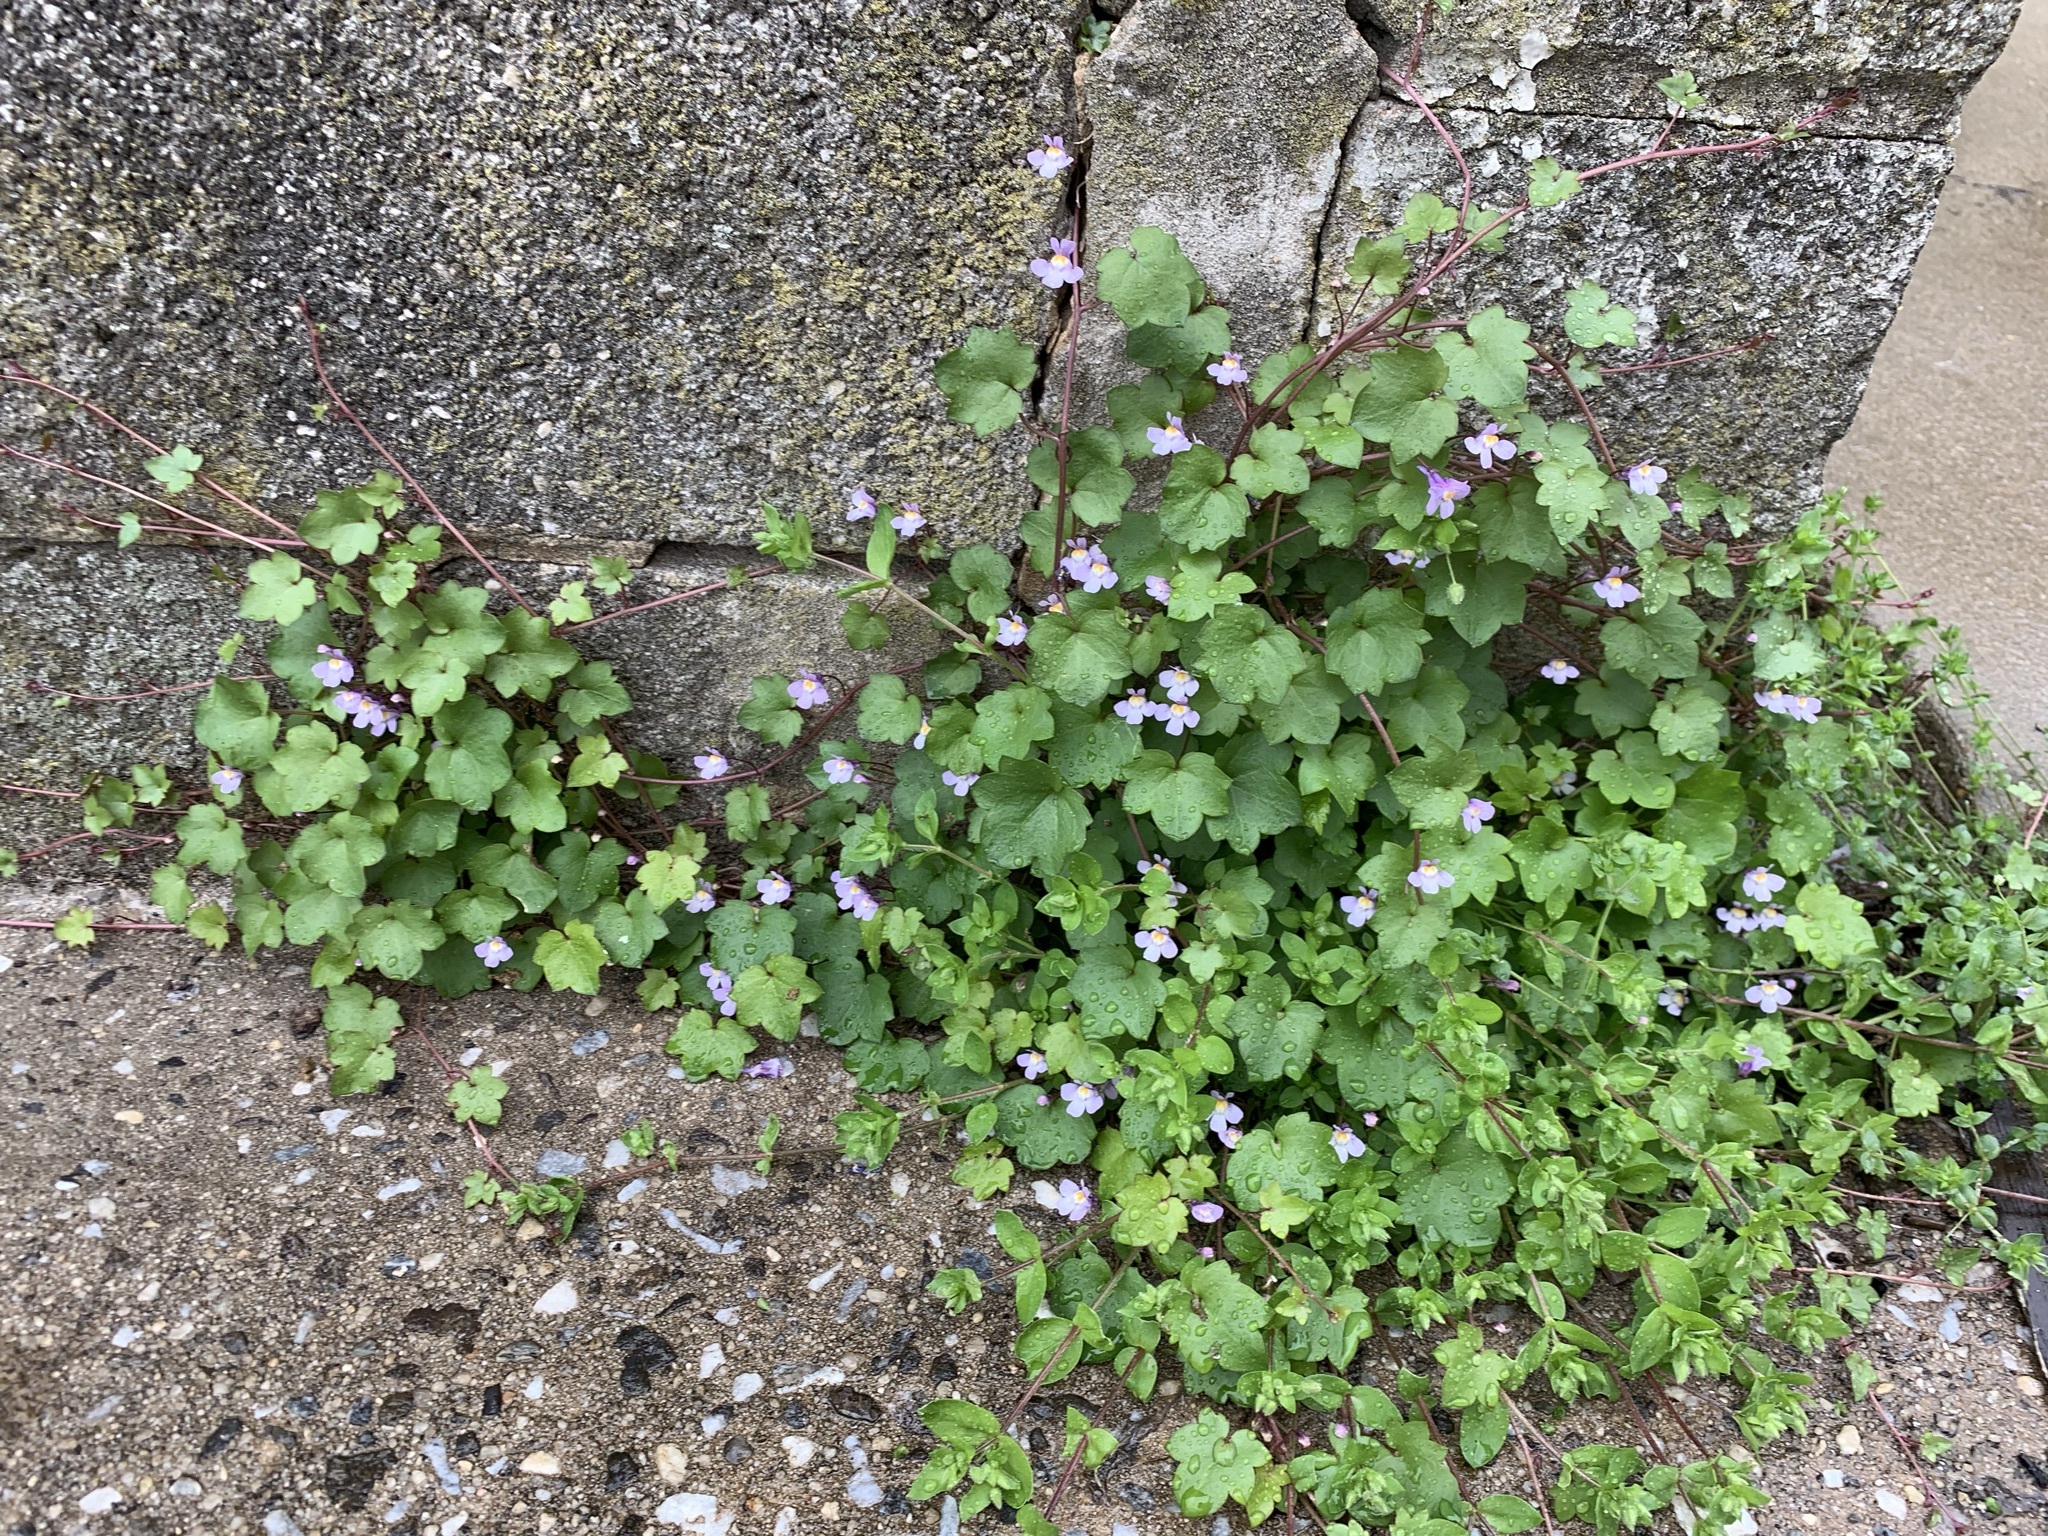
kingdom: Plantae
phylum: Tracheophyta
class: Magnoliopsida
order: Lamiales
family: Plantaginaceae
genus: Cymbalaria
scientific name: Cymbalaria muralis
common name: Ivy-leaved toadflax
